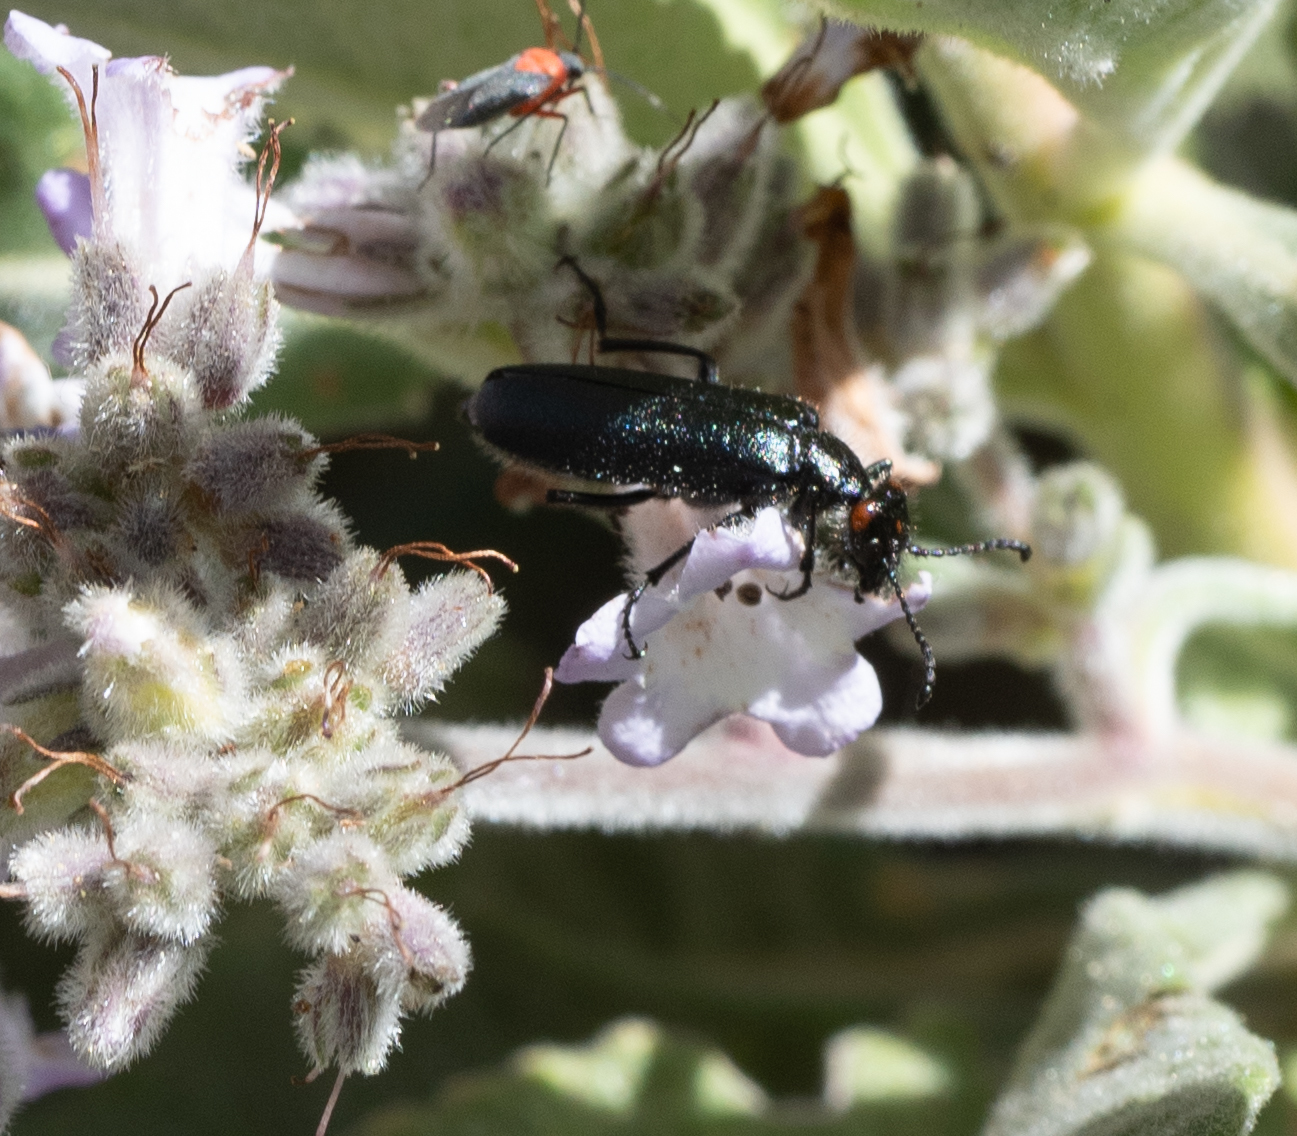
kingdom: Animalia
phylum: Arthropoda
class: Insecta
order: Coleoptera
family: Meloidae
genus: Lytta
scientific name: Lytta auriculata
